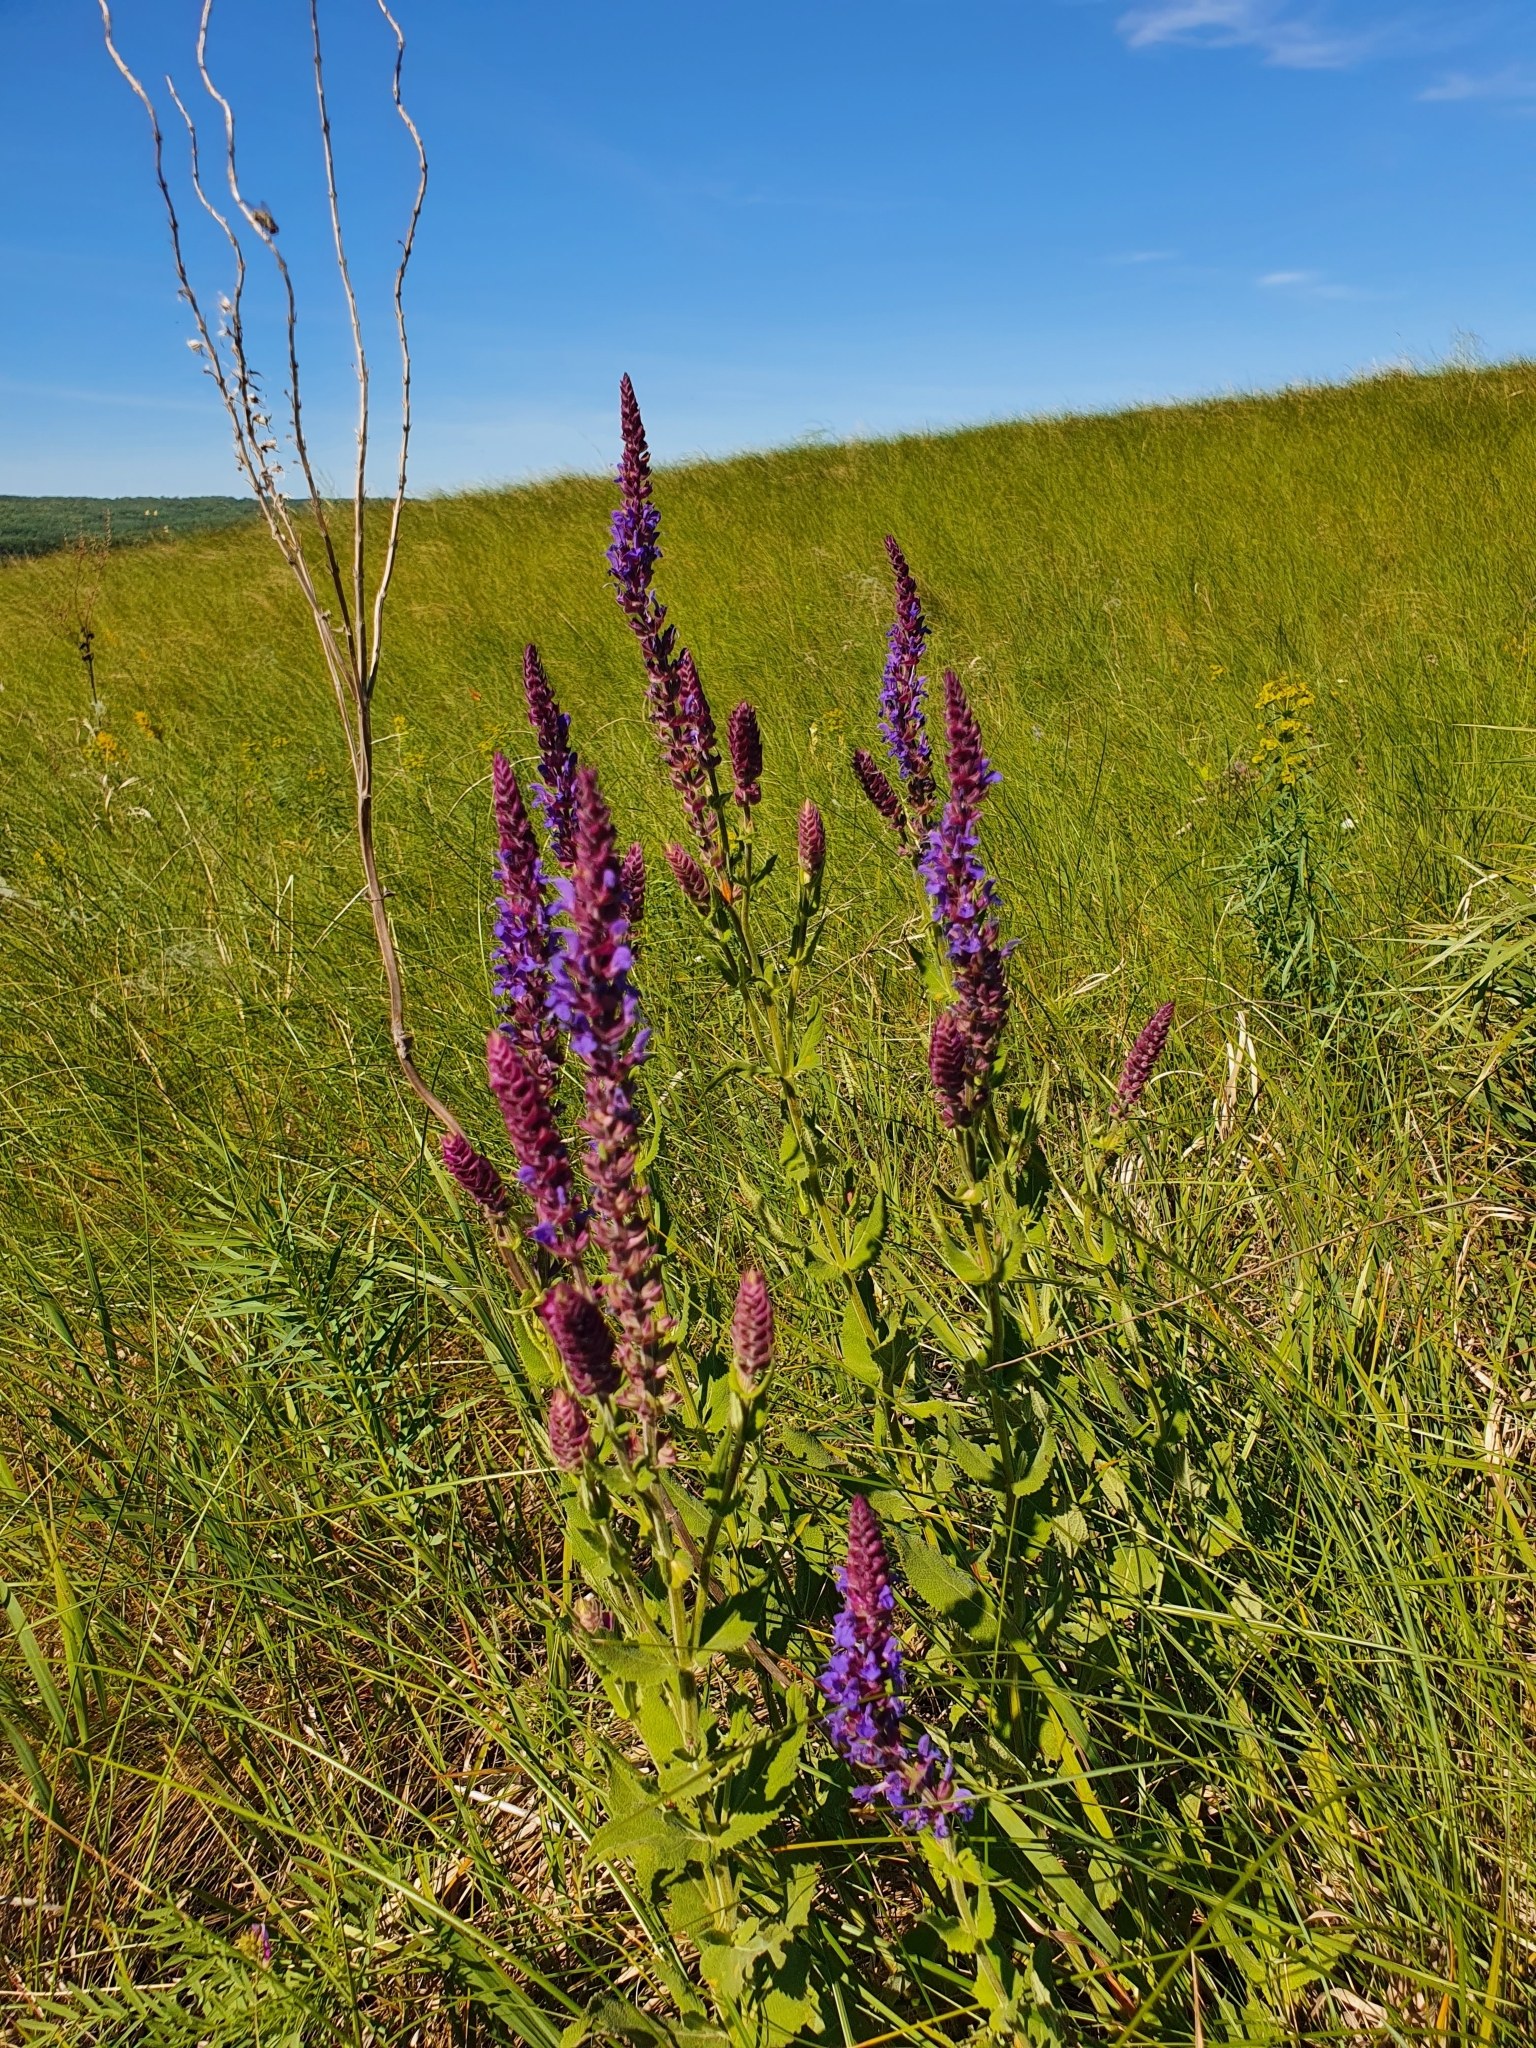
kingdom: Plantae
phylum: Tracheophyta
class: Magnoliopsida
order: Lamiales
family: Lamiaceae
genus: Salvia
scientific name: Salvia nemorosa
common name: Balkan clary
